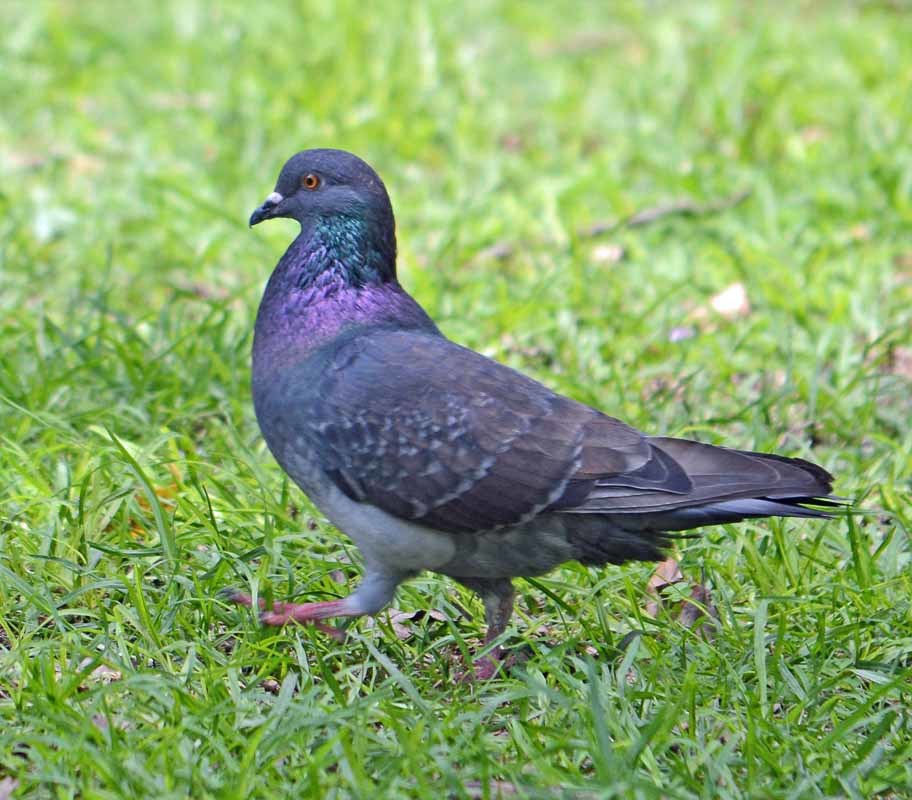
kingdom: Animalia
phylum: Chordata
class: Aves
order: Columbiformes
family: Columbidae
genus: Columba
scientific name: Columba livia
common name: Rock pigeon
